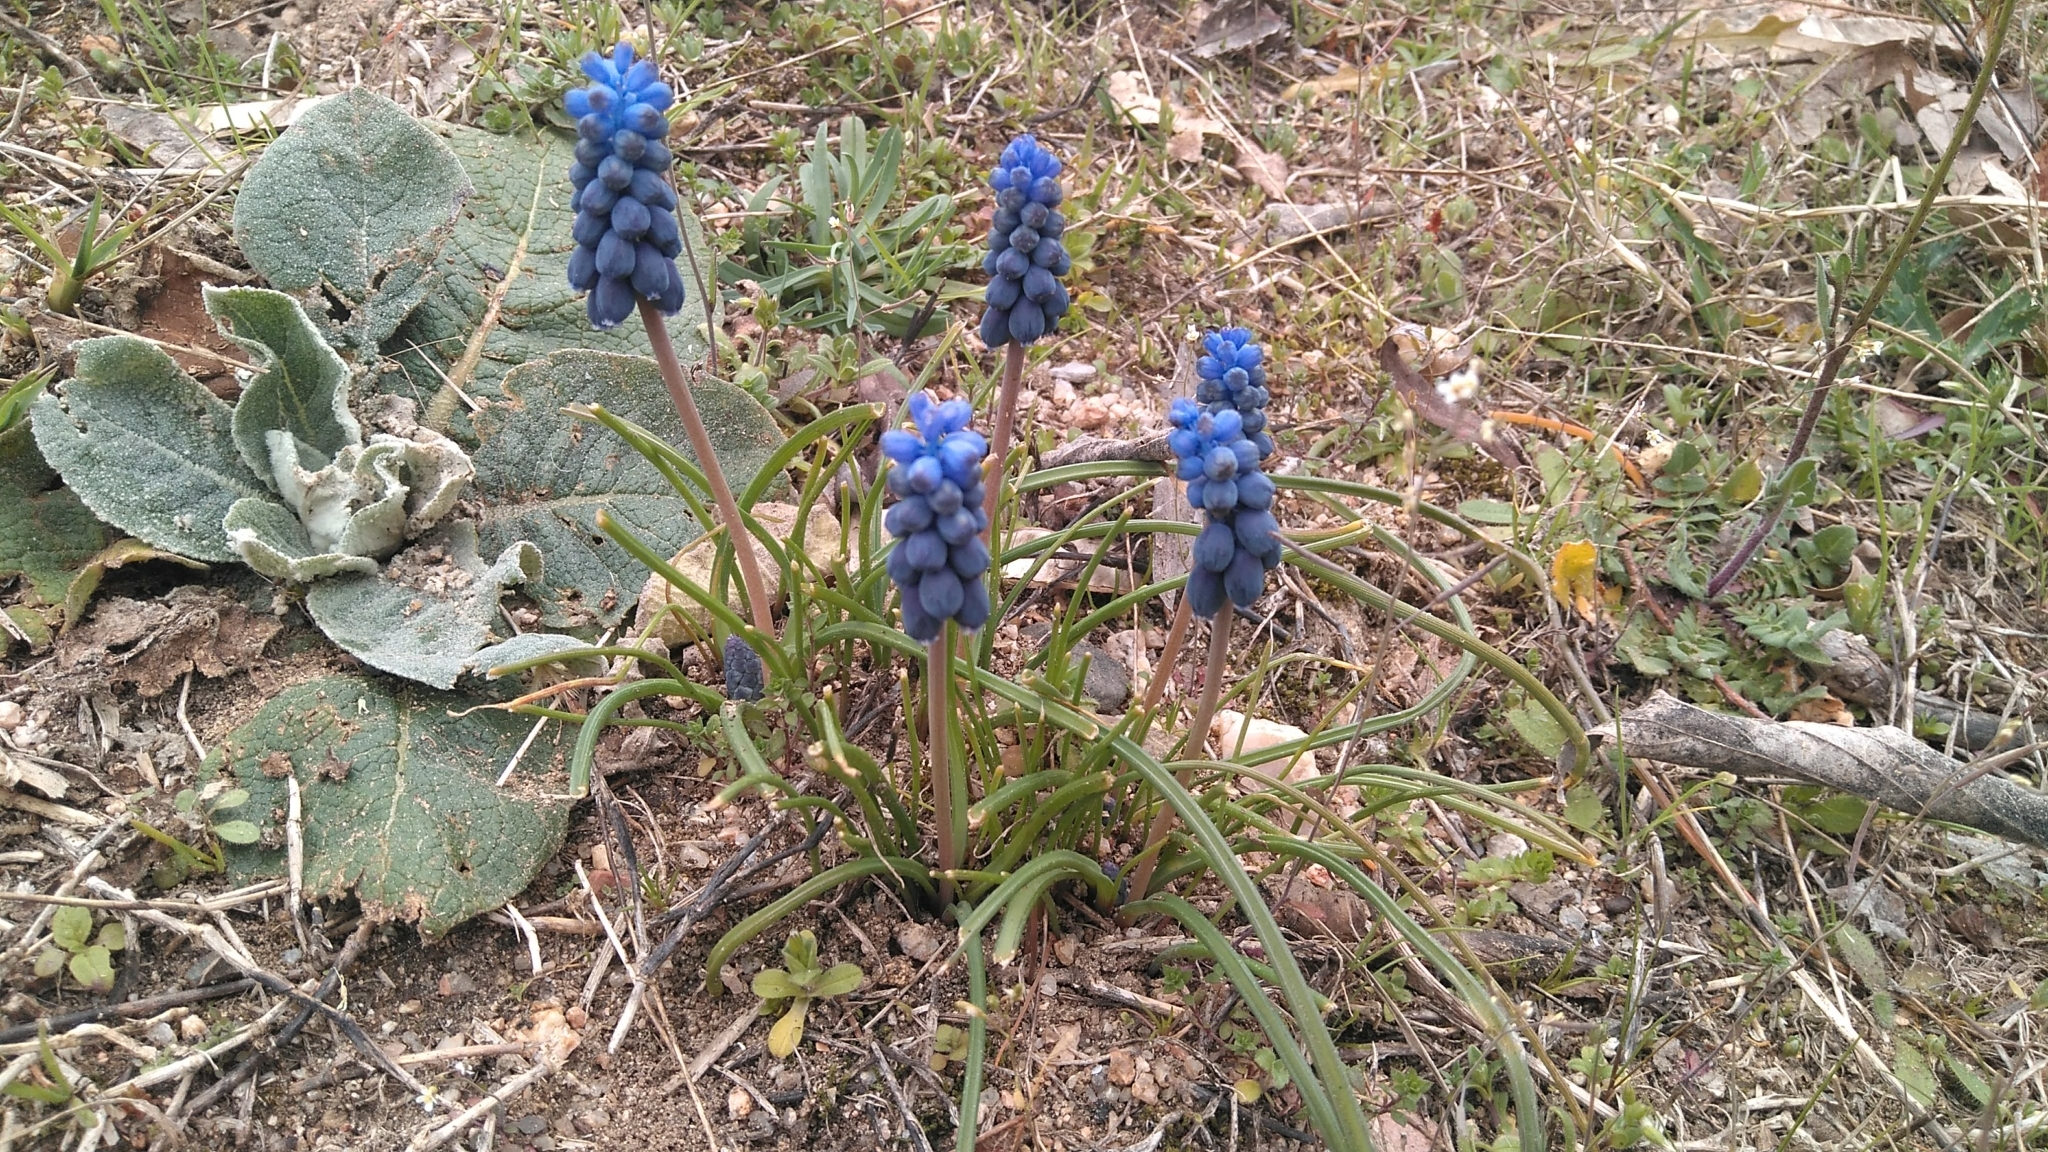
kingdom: Plantae
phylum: Tracheophyta
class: Liliopsida
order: Asparagales
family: Asparagaceae
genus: Muscari
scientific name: Muscari neglectum
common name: Grape-hyacinth
